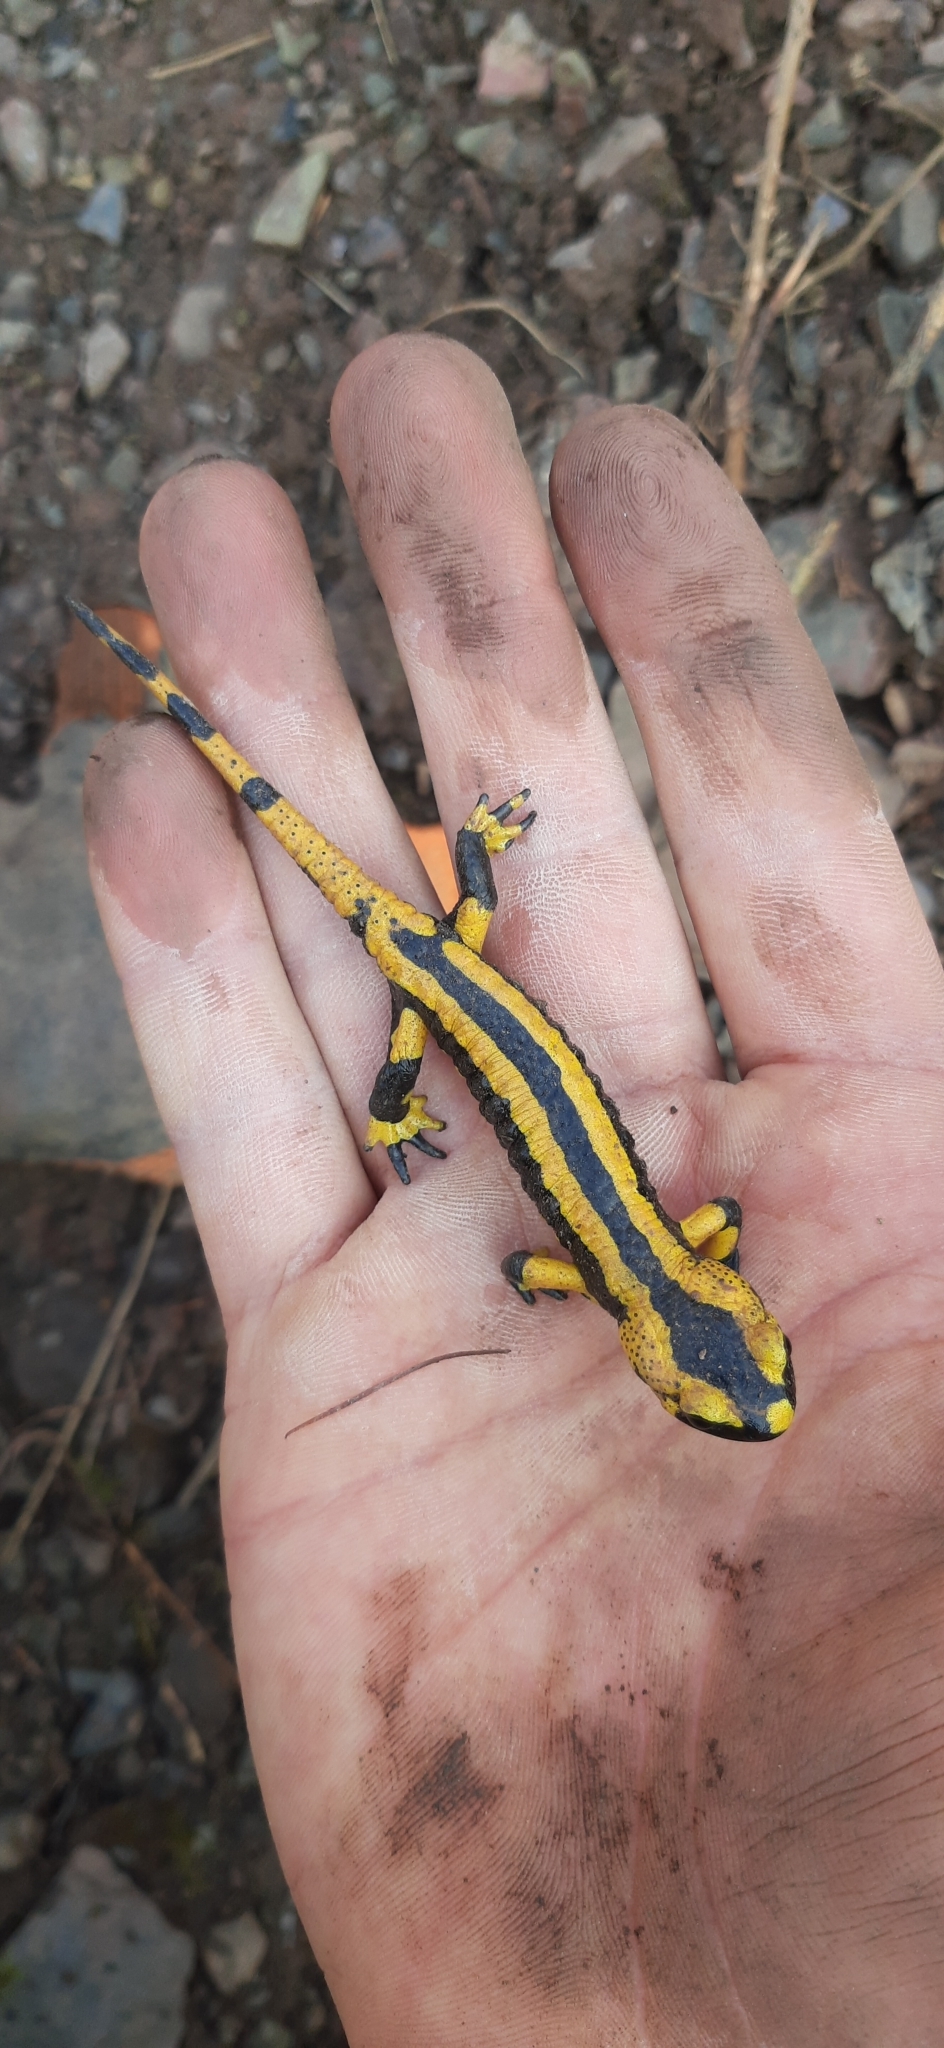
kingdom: Animalia
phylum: Chordata
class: Amphibia
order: Caudata
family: Salamandridae
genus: Salamandra
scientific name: Salamandra salamandra
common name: Fire salamander
